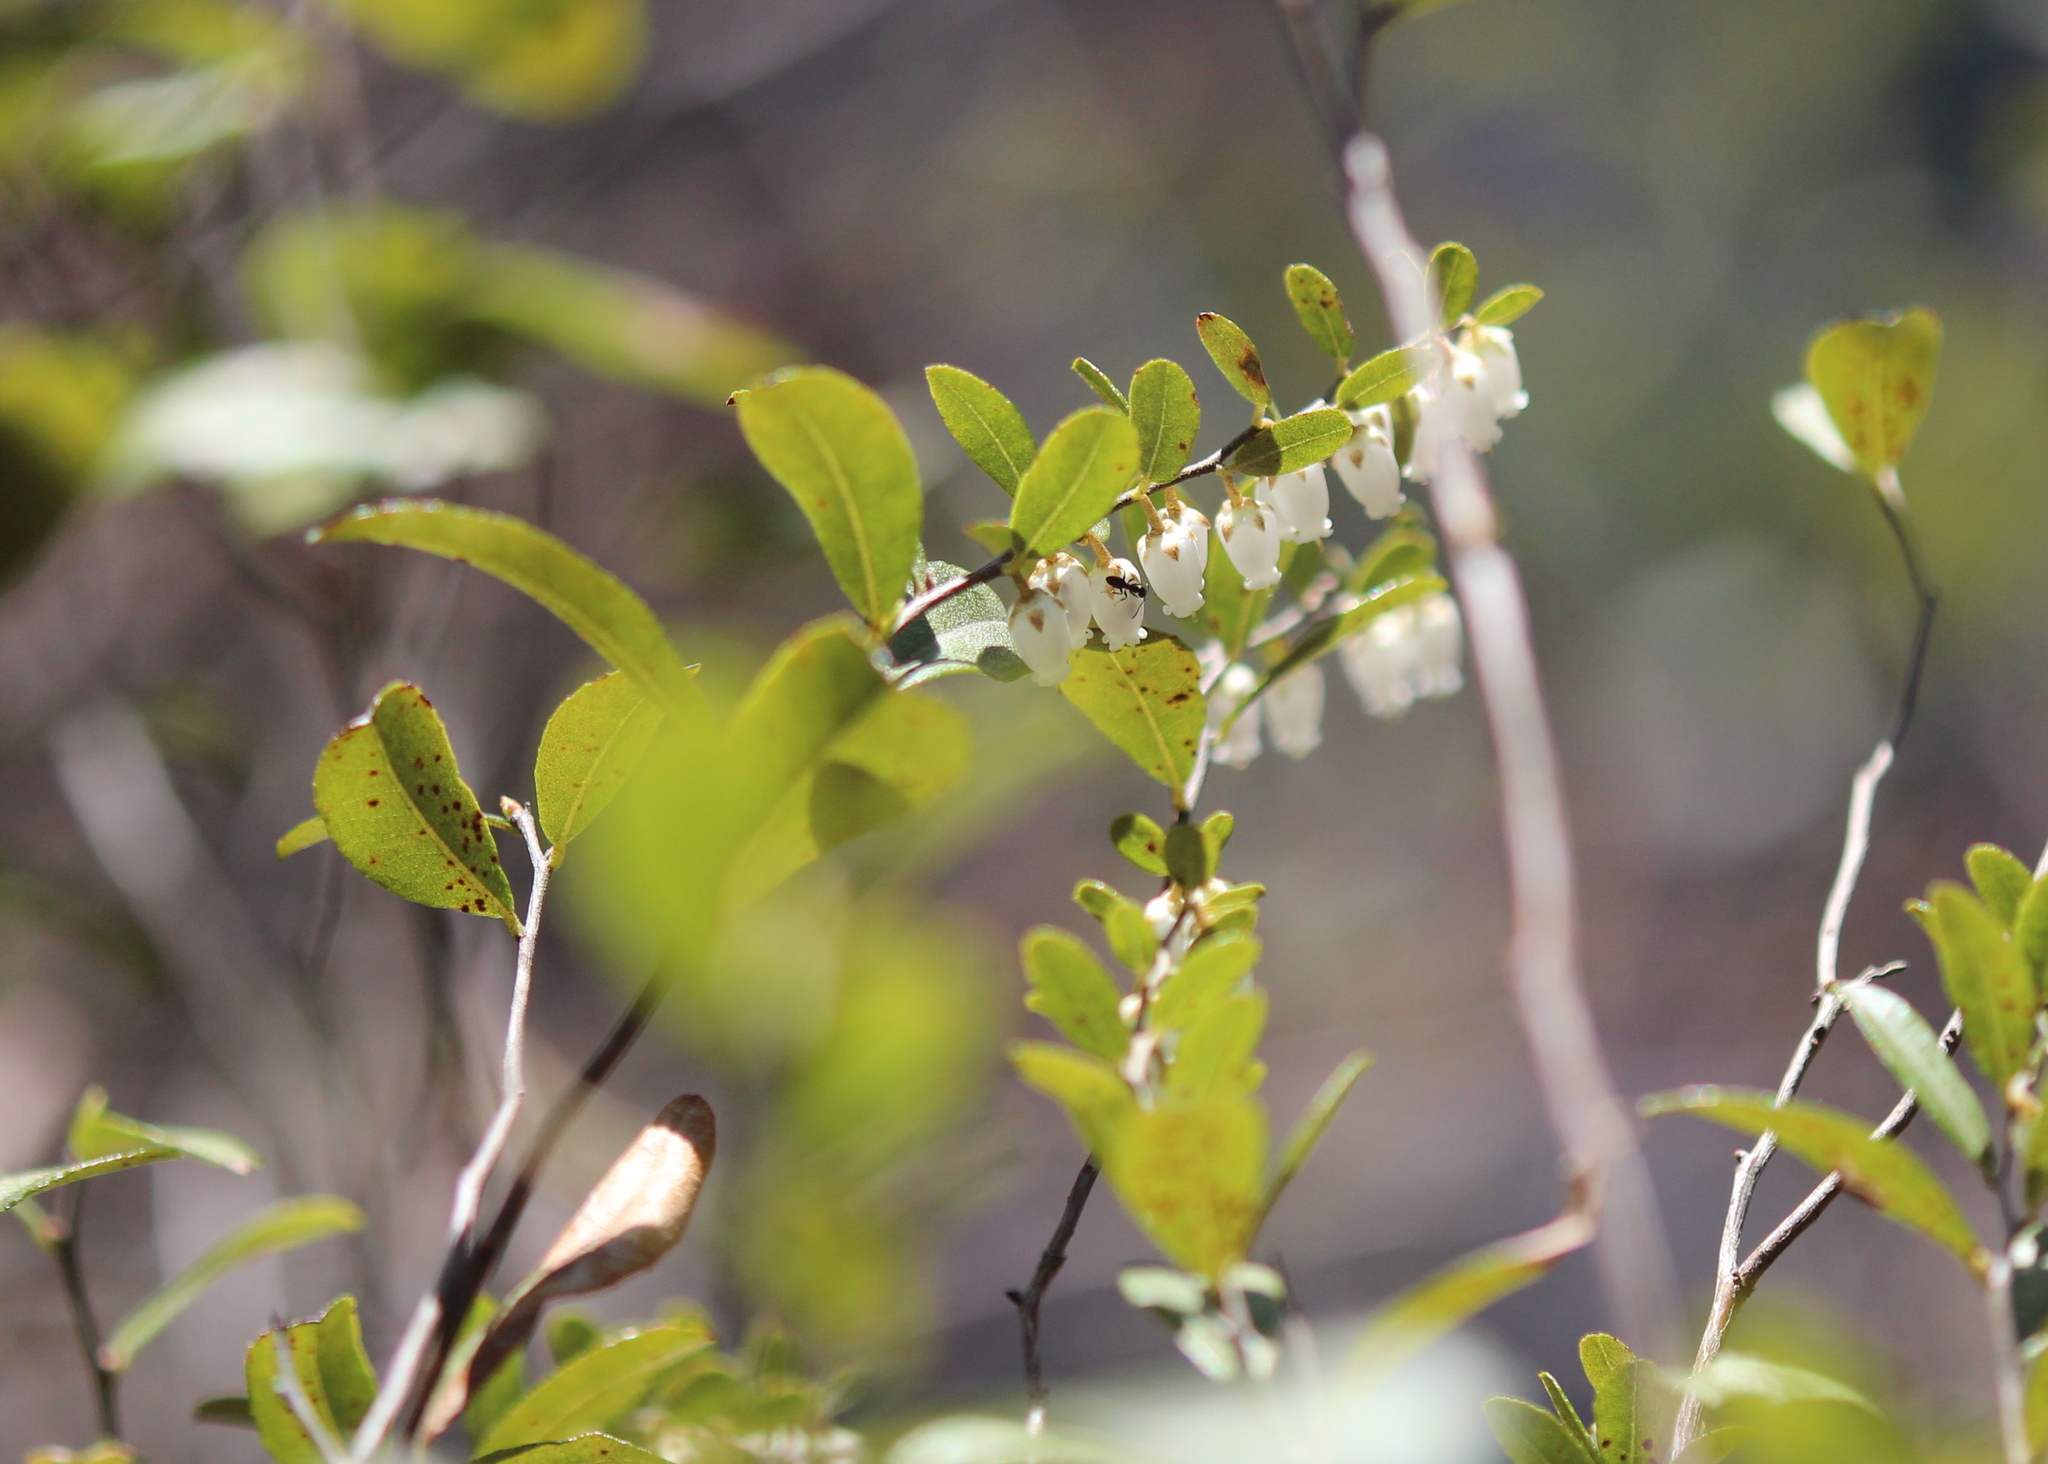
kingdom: Plantae
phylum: Tracheophyta
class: Magnoliopsida
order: Ericales
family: Ericaceae
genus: Chamaedaphne
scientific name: Chamaedaphne calyculata
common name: Leatherleaf
